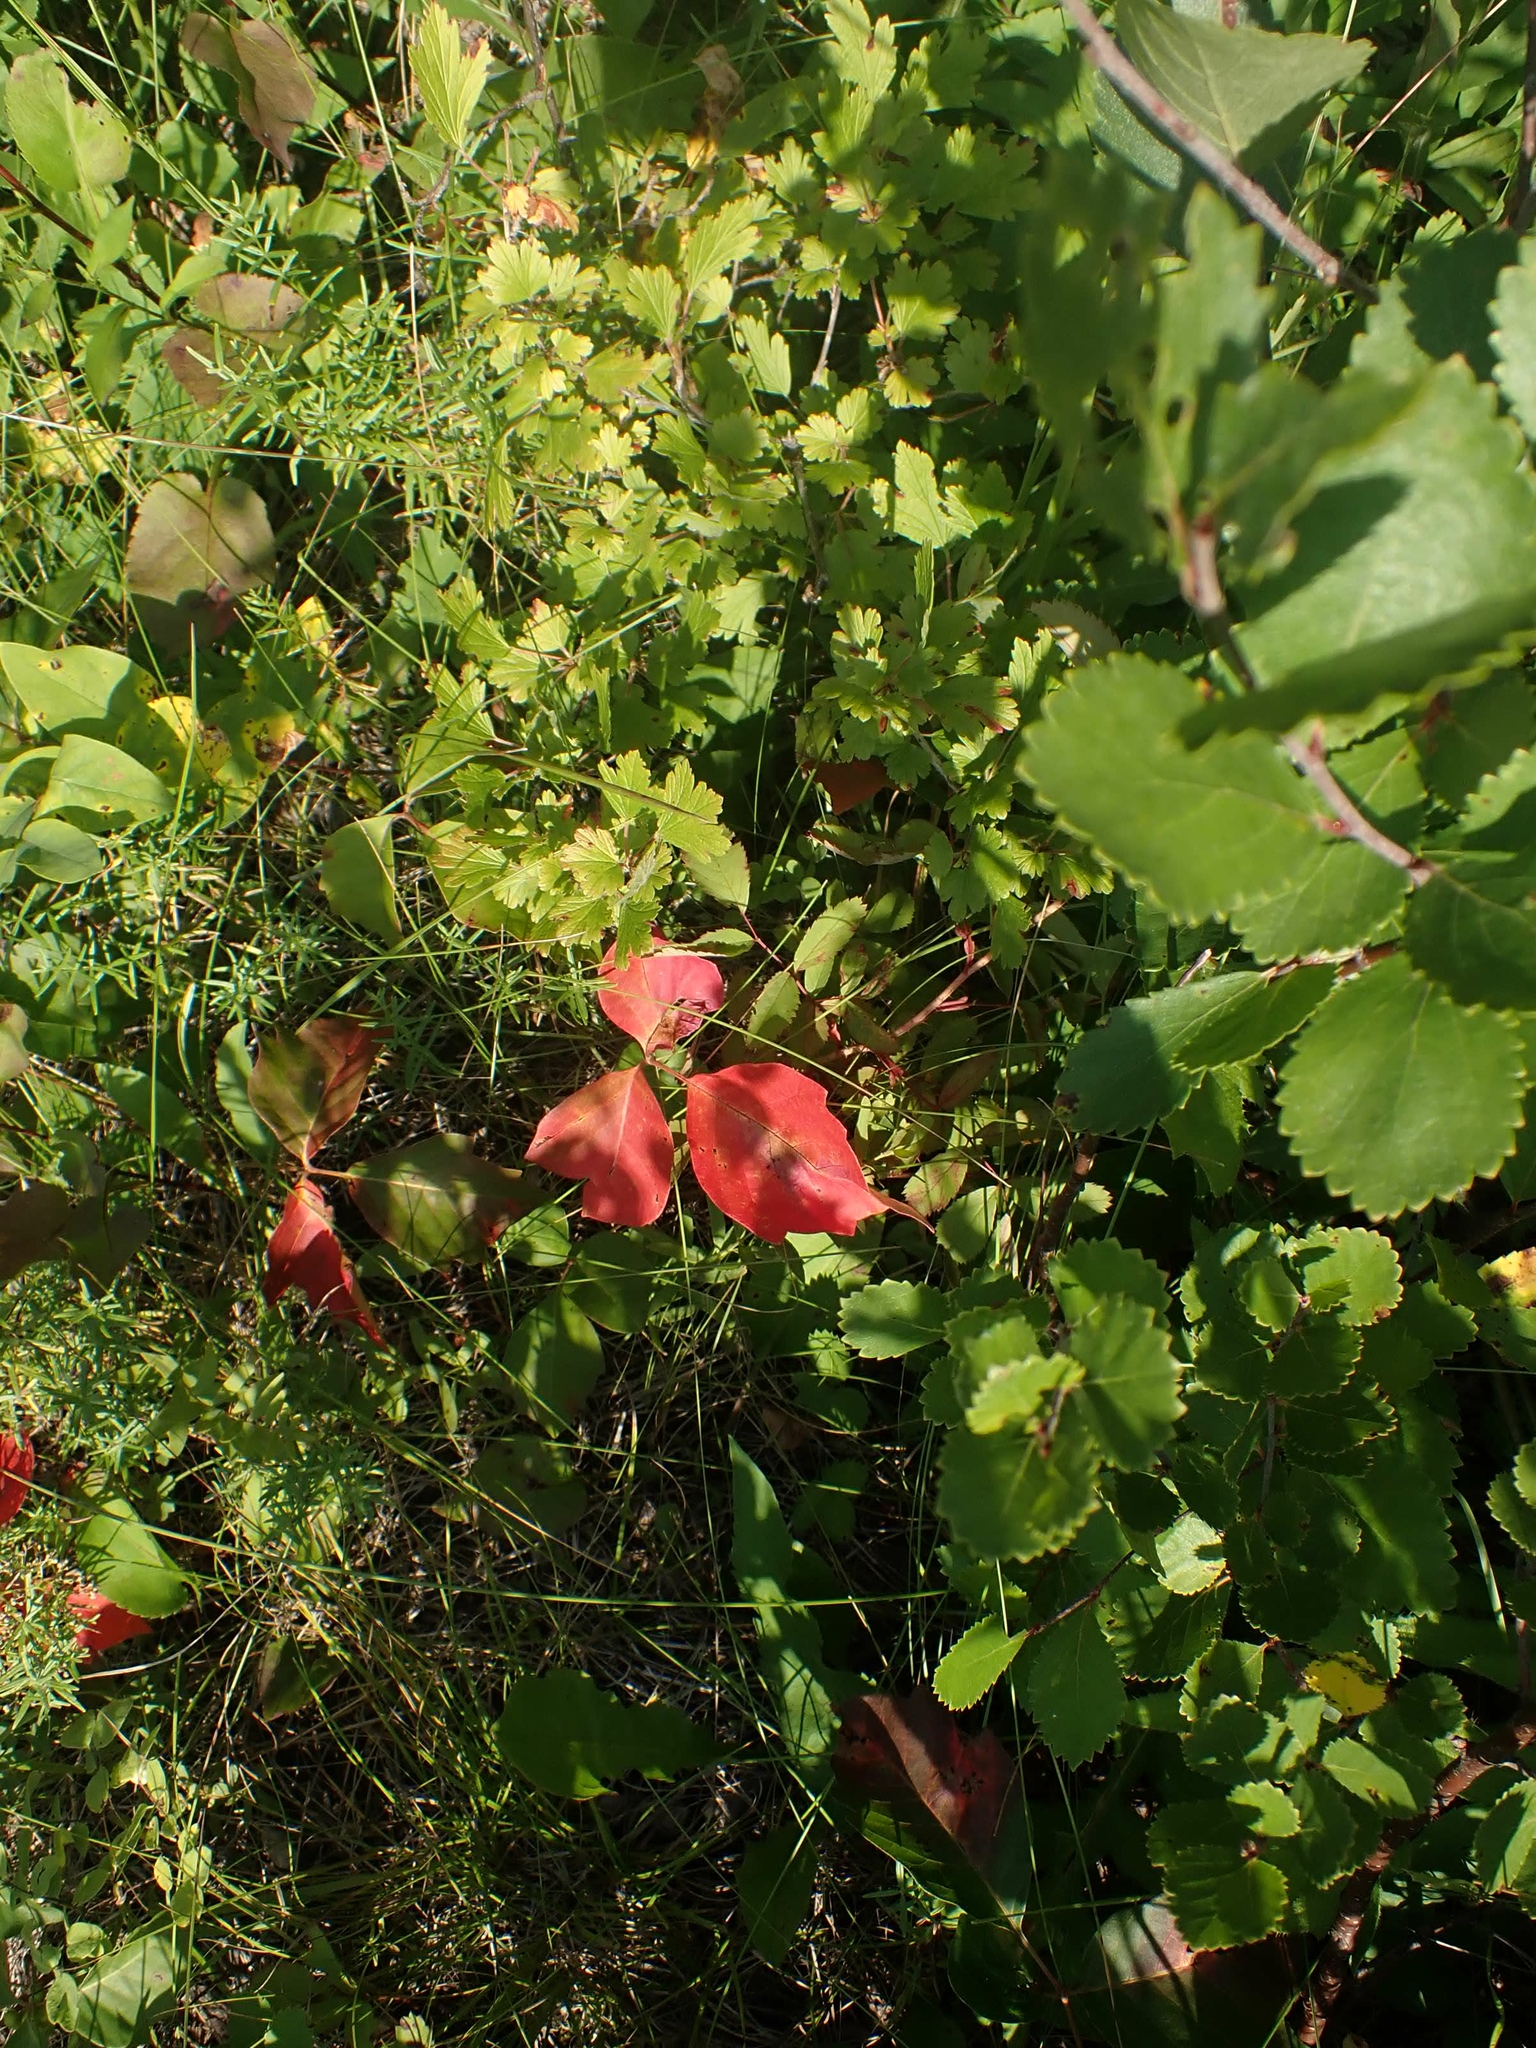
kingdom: Plantae
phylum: Tracheophyta
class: Magnoliopsida
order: Sapindales
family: Anacardiaceae
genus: Toxicodendron
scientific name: Toxicodendron rydbergii
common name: Rydberg's poison-ivy
